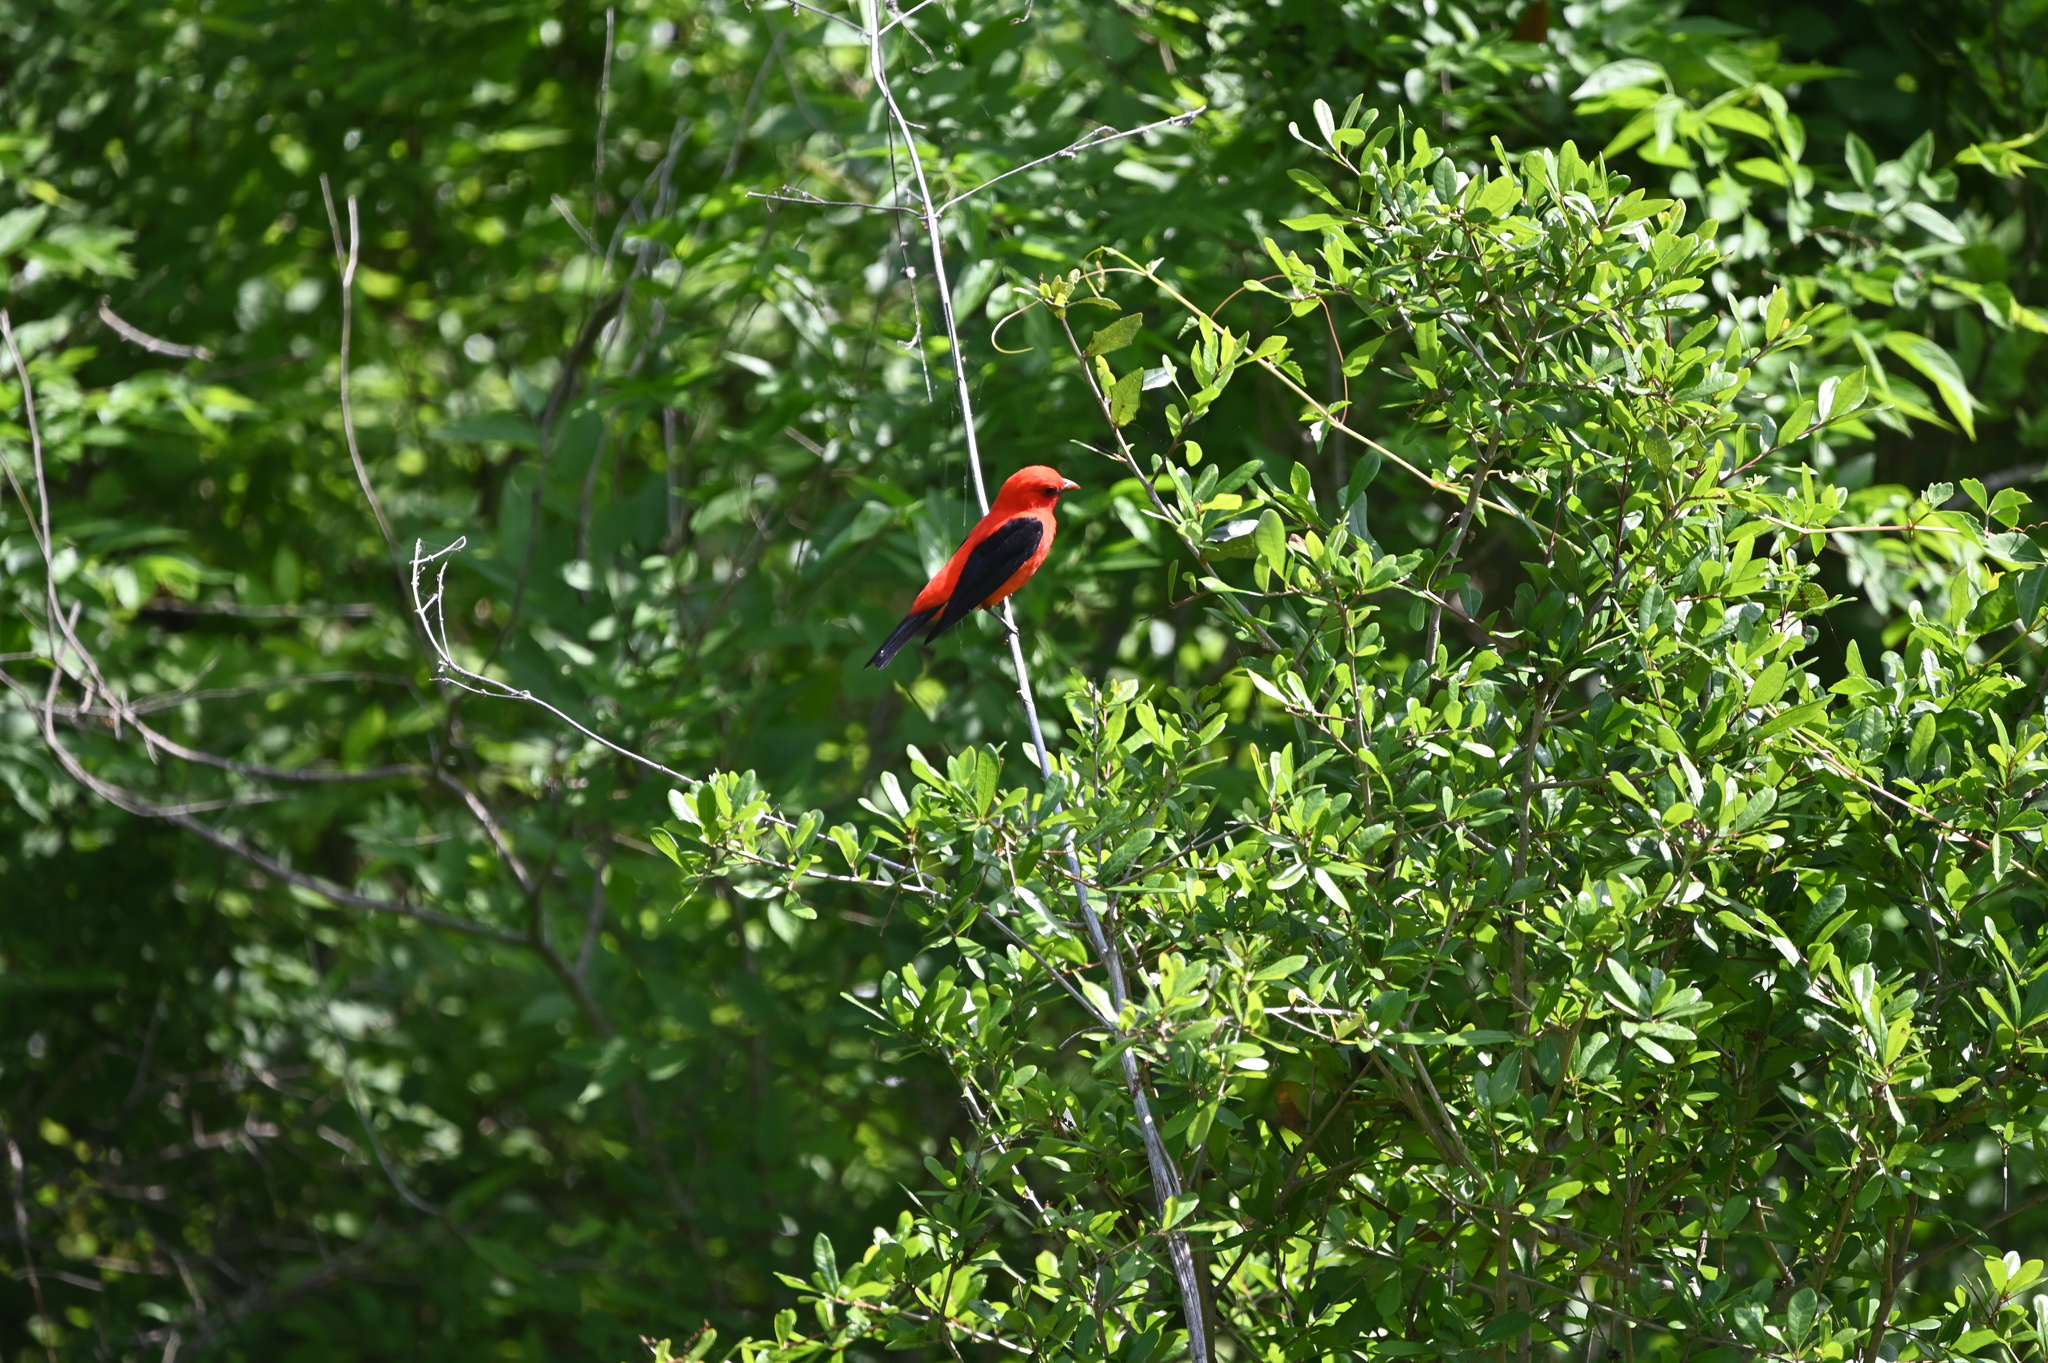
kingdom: Animalia
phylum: Chordata
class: Aves
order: Passeriformes
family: Cardinalidae
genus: Piranga
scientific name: Piranga olivacea
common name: Scarlet tanager
